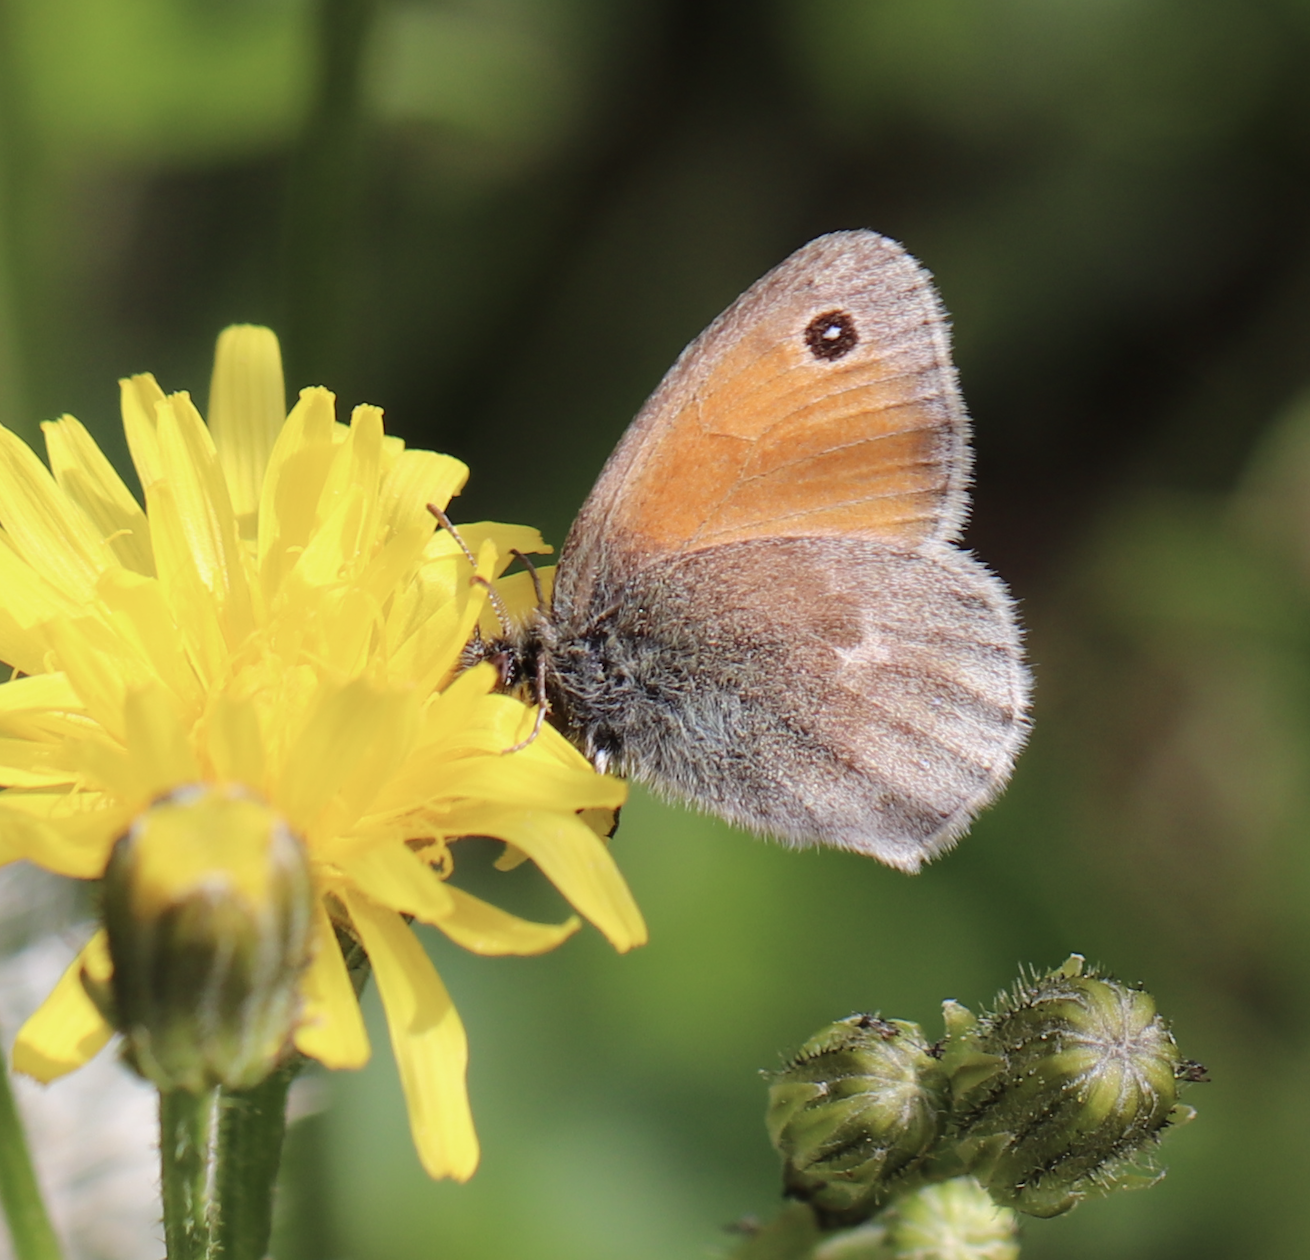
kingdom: Animalia
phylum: Arthropoda
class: Insecta
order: Lepidoptera
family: Nymphalidae
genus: Coenonympha
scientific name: Coenonympha pamphilus
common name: Small heath
